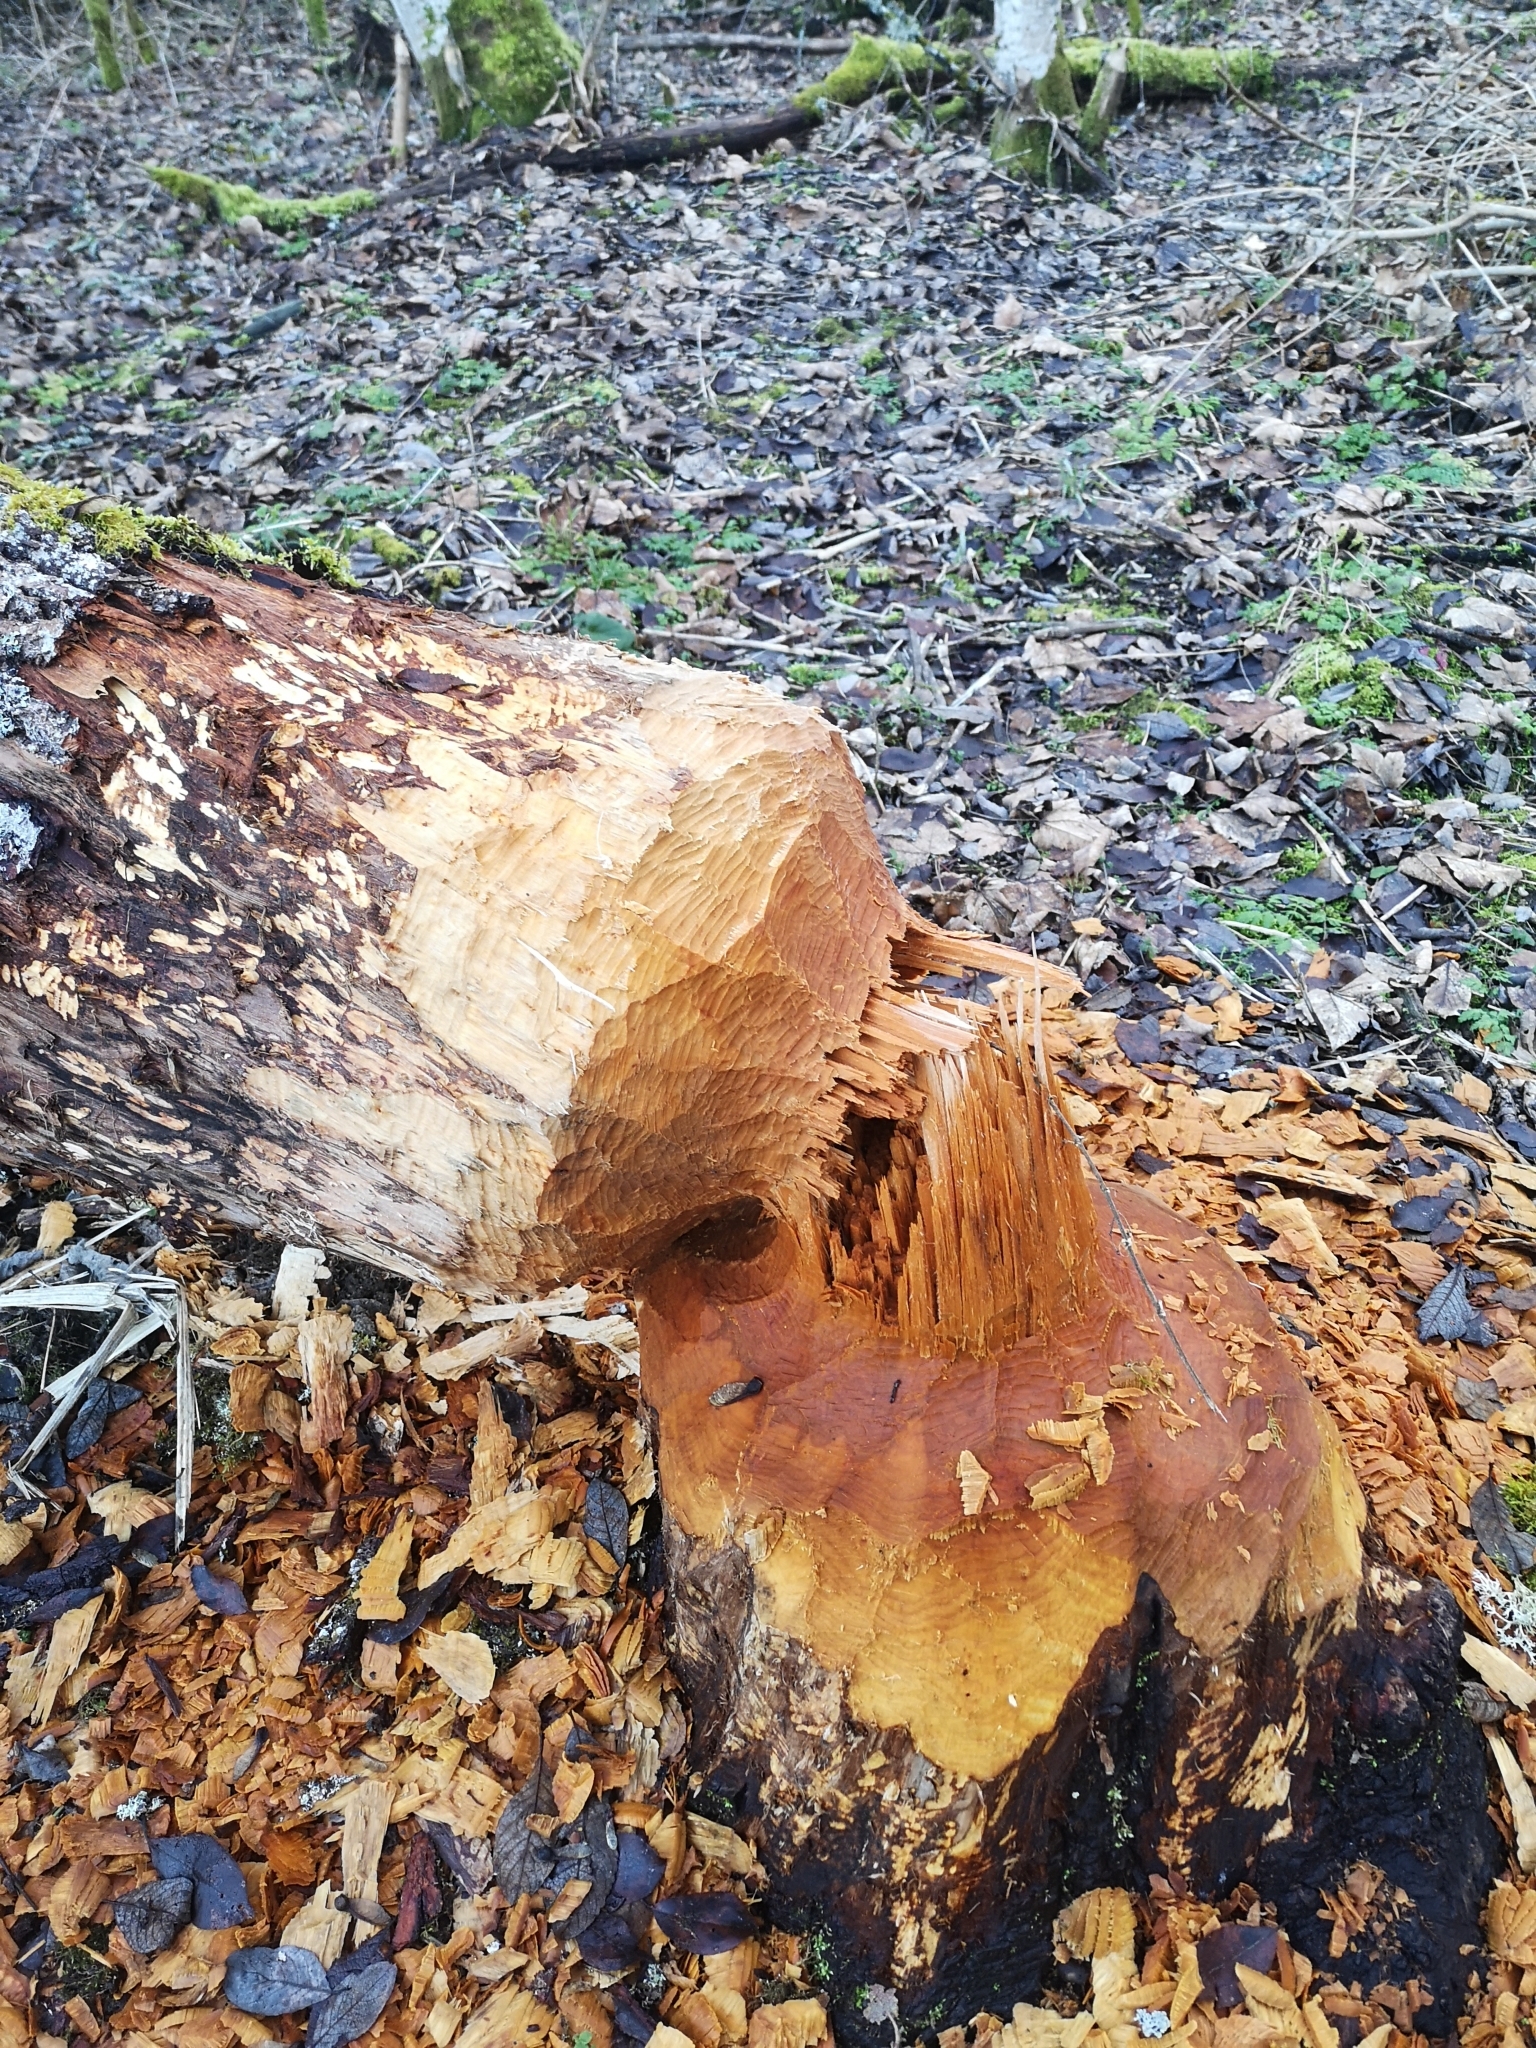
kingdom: Animalia
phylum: Chordata
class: Mammalia
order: Rodentia
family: Castoridae
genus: Castor
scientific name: Castor fiber
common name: Eurasian beaver
